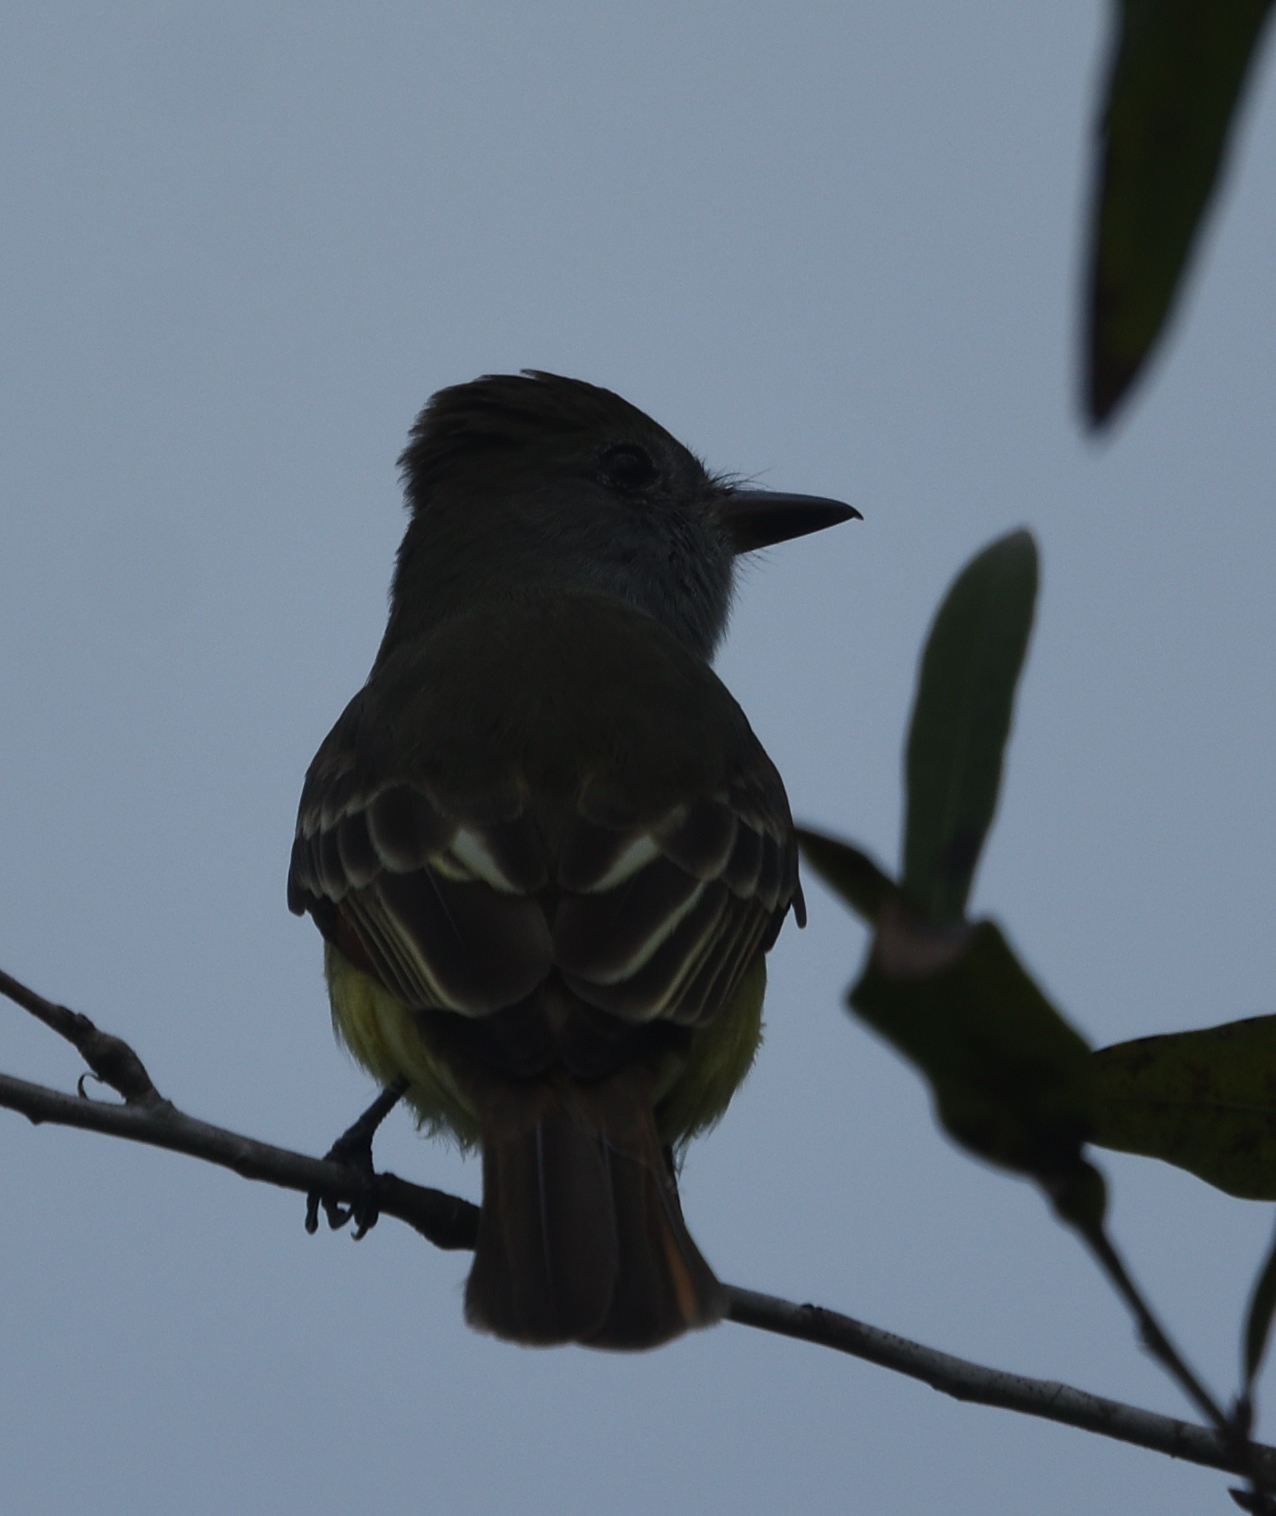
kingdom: Animalia
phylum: Chordata
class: Aves
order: Passeriformes
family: Tyrannidae
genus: Myiarchus
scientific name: Myiarchus crinitus
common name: Great crested flycatcher
